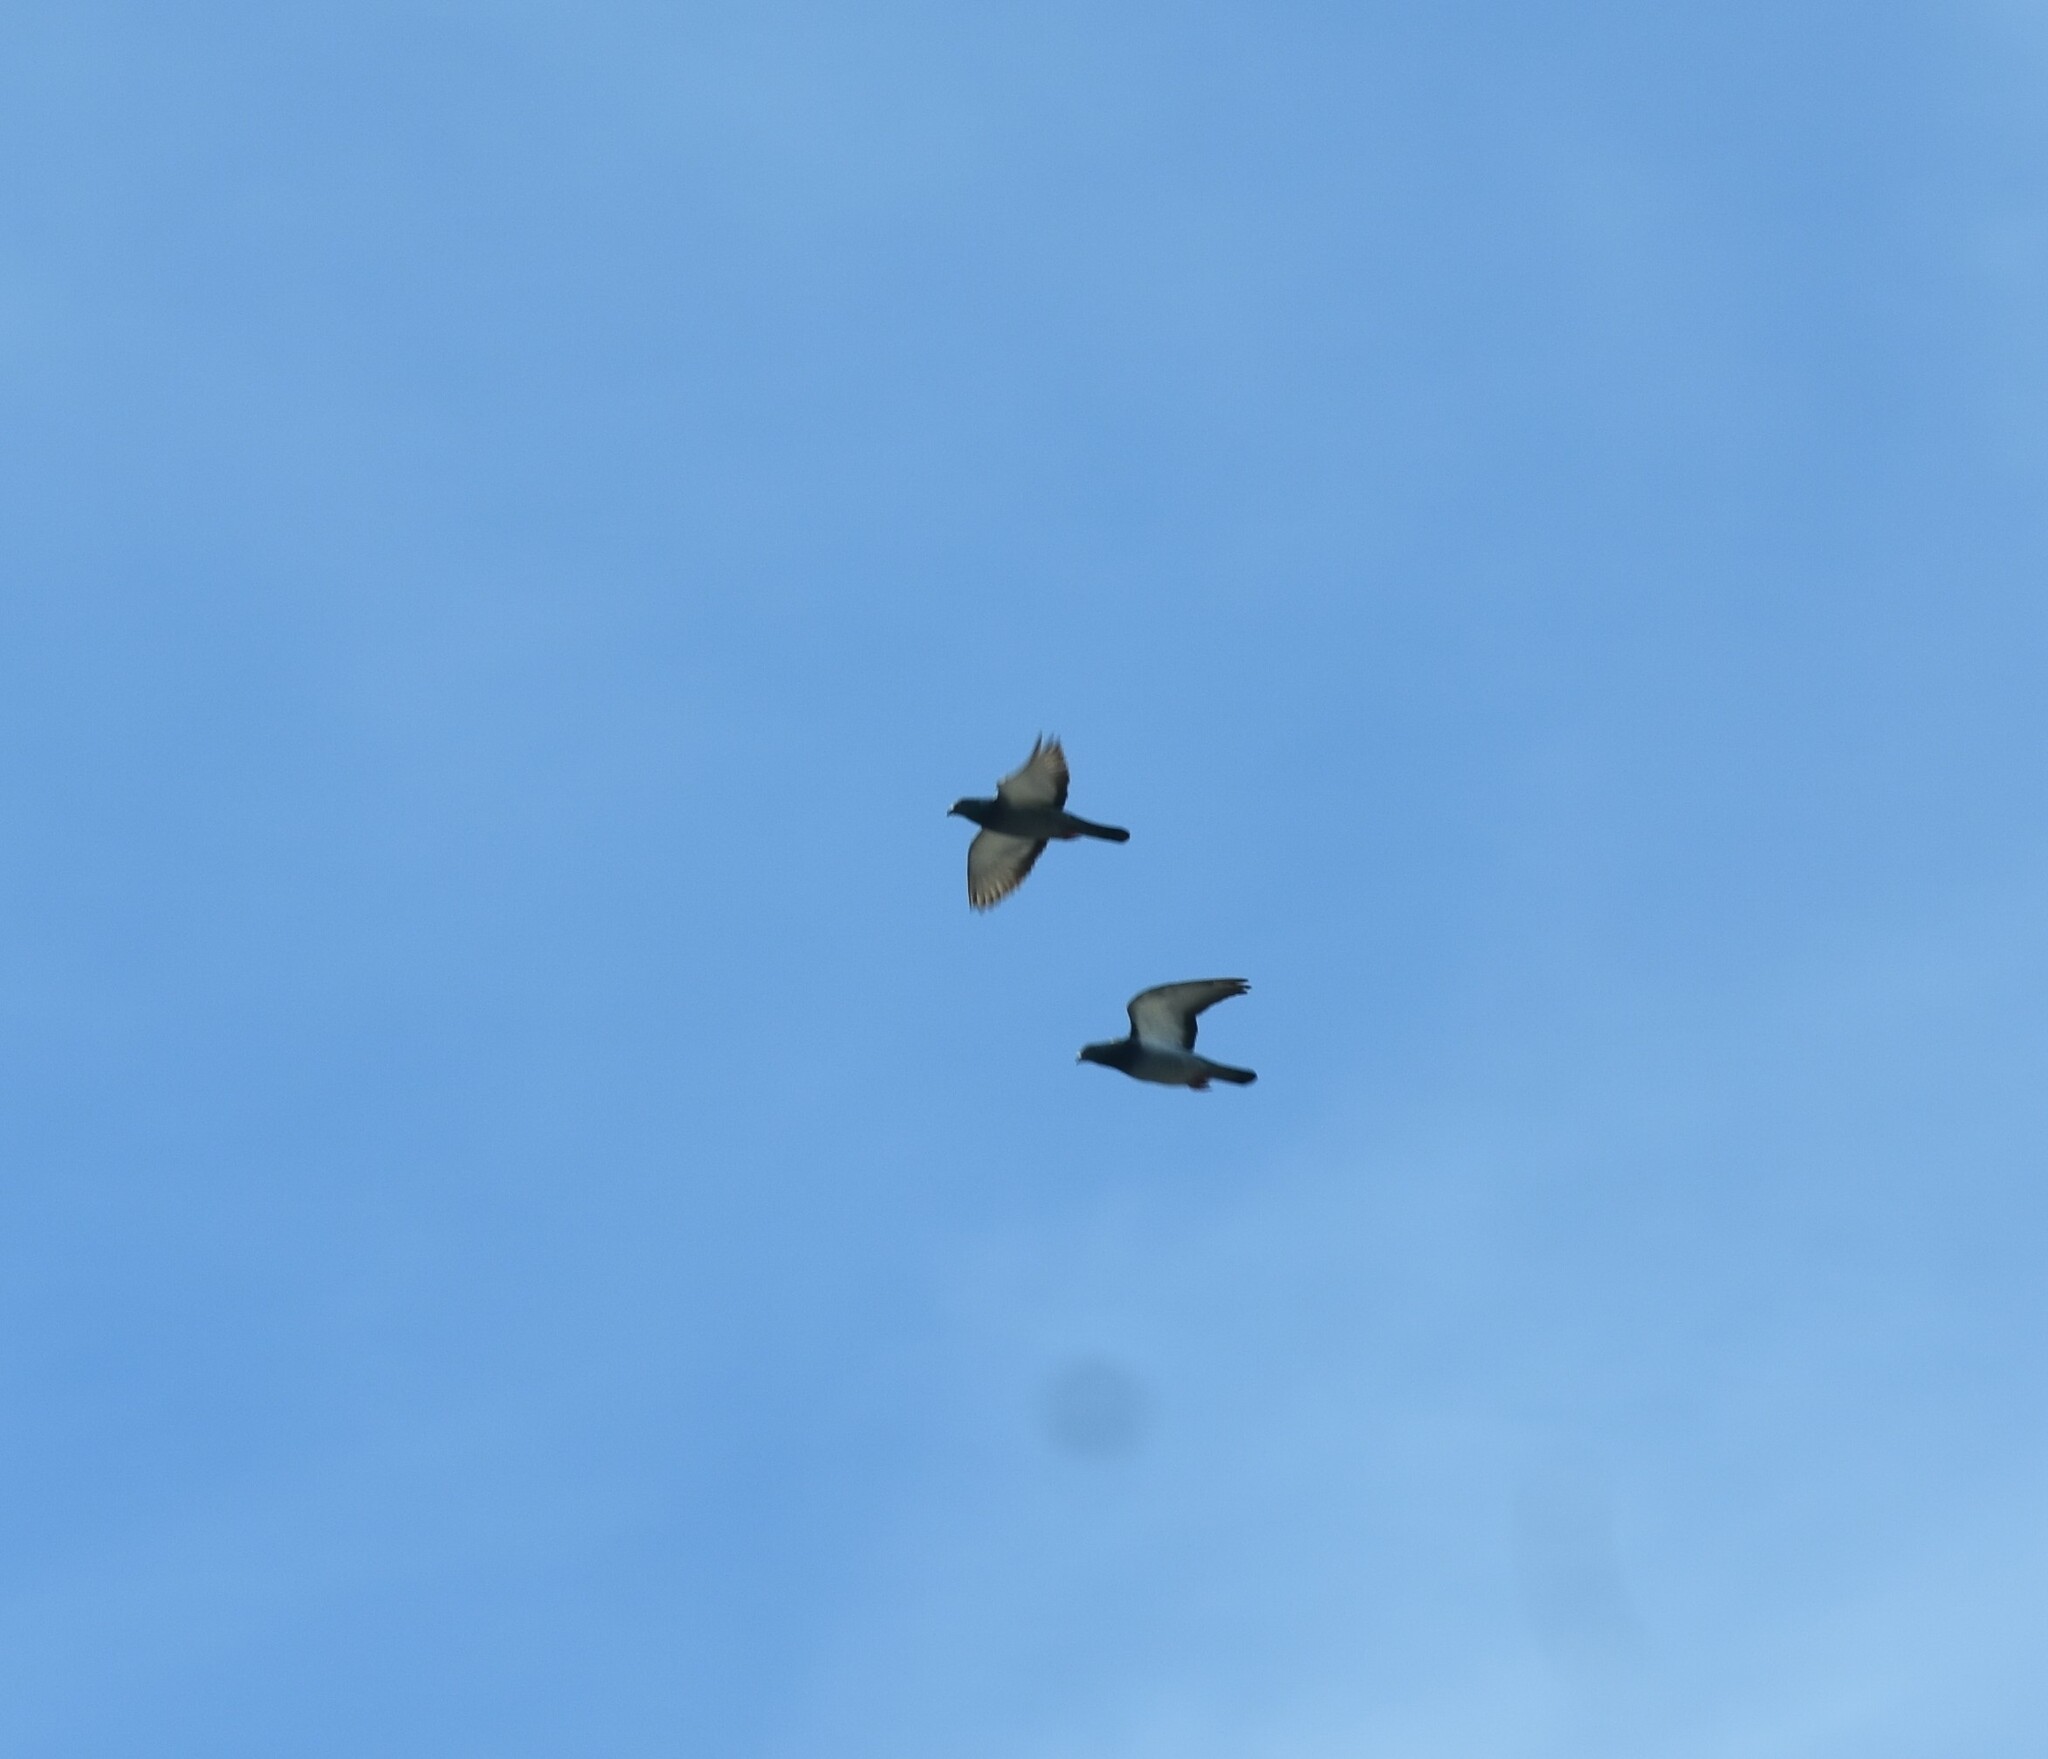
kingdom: Animalia
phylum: Chordata
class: Aves
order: Columbiformes
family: Columbidae
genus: Columba
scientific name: Columba livia
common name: Rock pigeon
